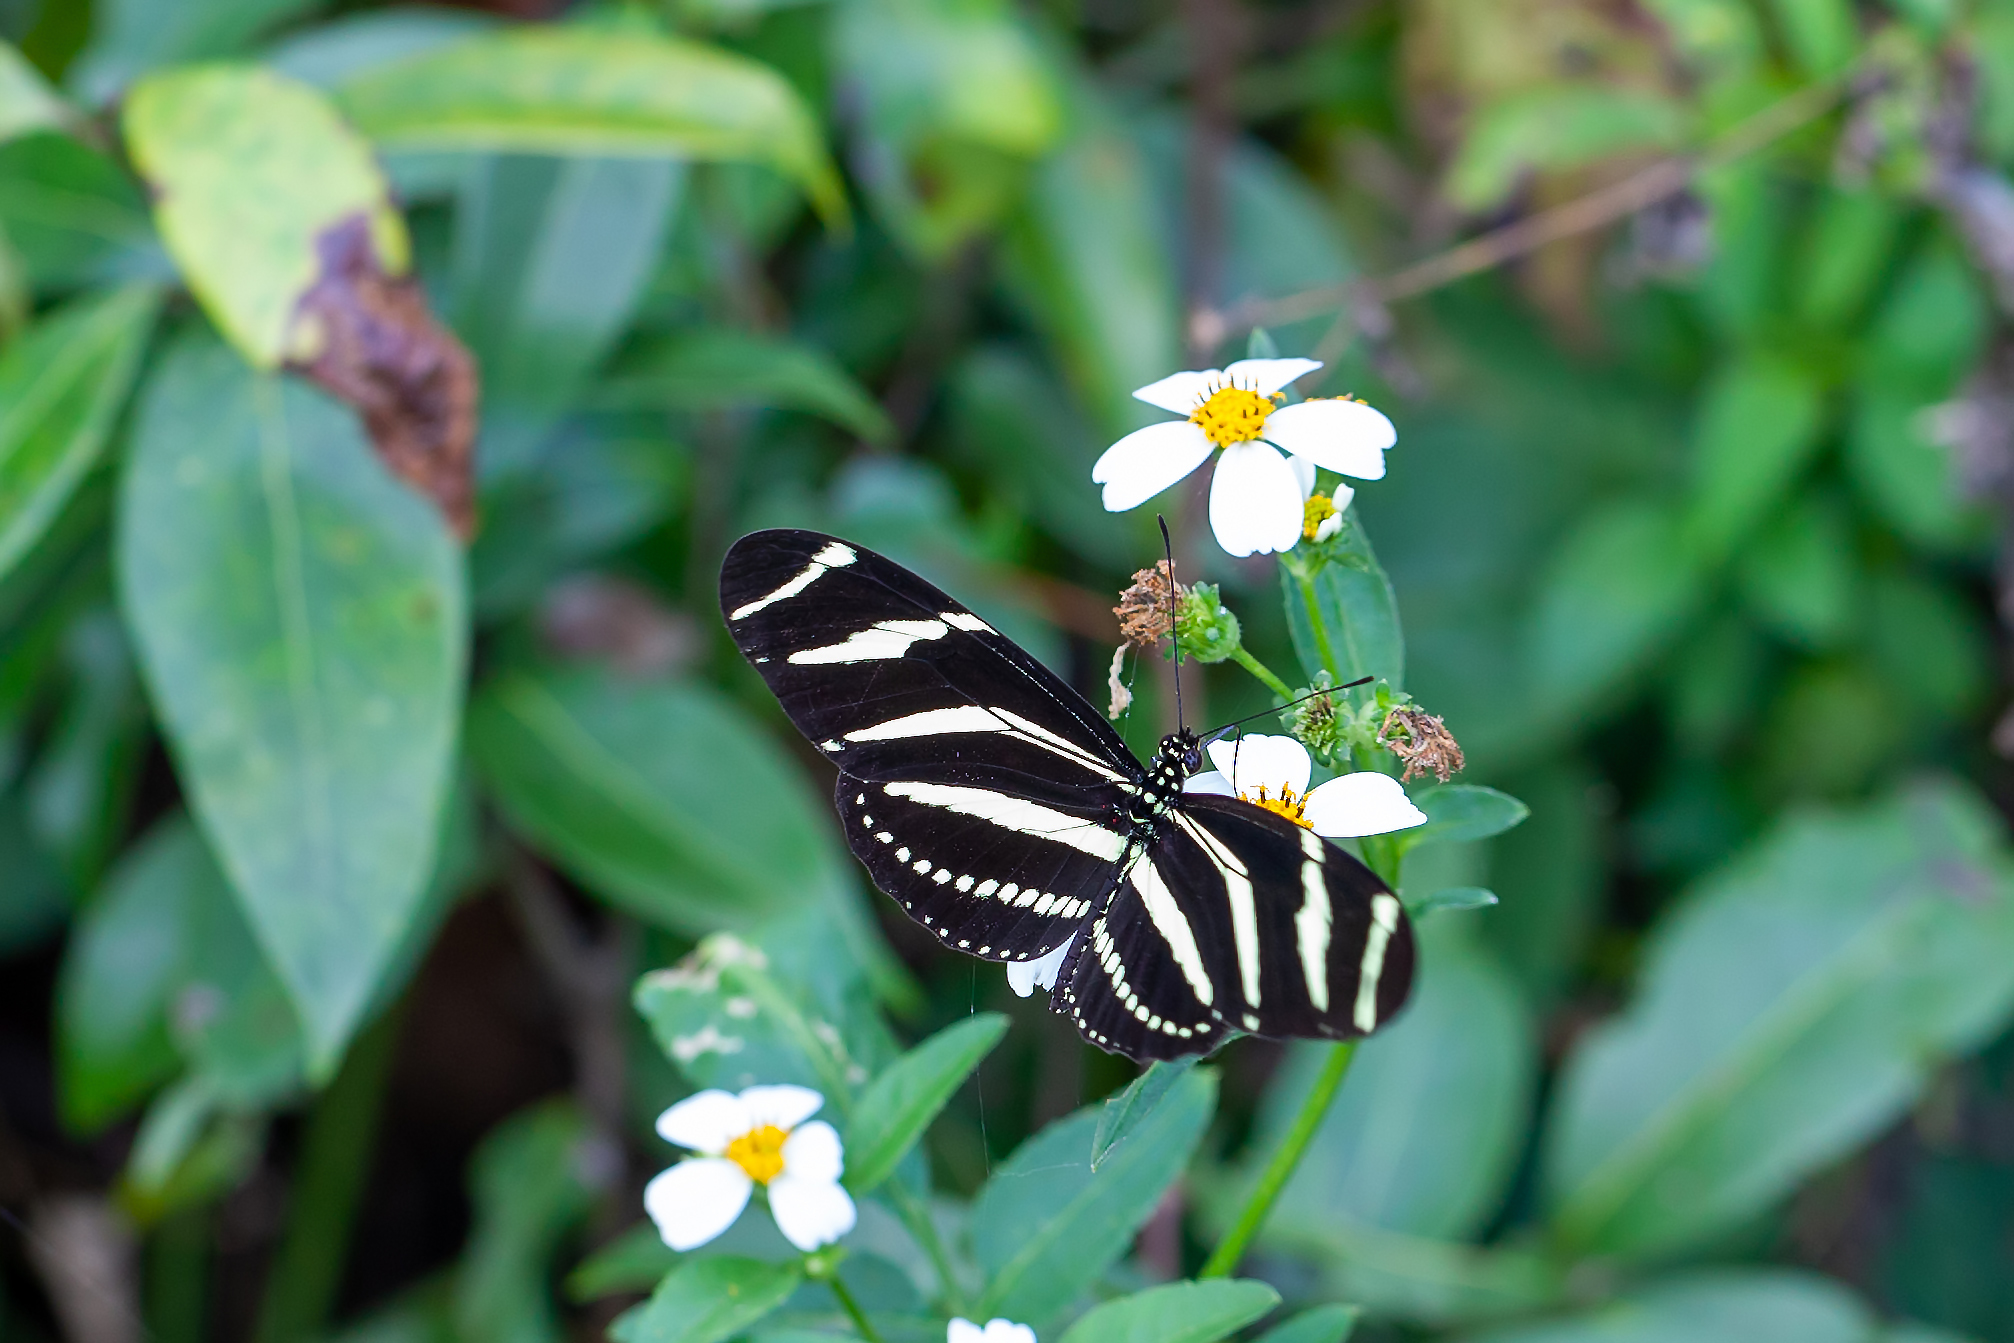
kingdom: Animalia
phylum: Arthropoda
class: Insecta
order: Lepidoptera
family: Nymphalidae
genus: Heliconius
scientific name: Heliconius charithonia
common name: Zebra long wing
